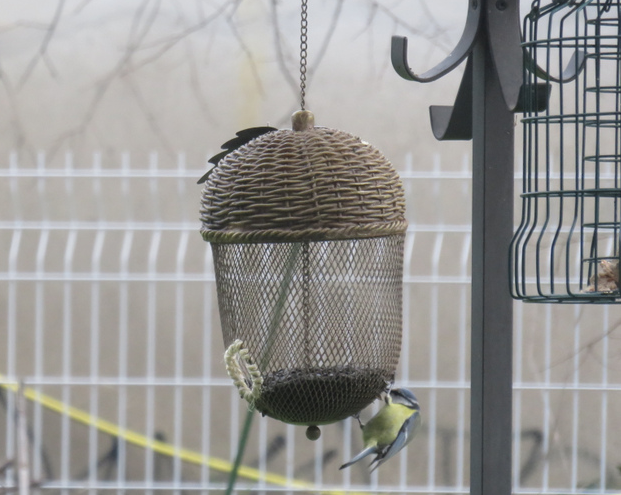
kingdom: Animalia
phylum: Chordata
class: Aves
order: Passeriformes
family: Paridae
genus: Cyanistes
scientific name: Cyanistes caeruleus
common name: Eurasian blue tit
